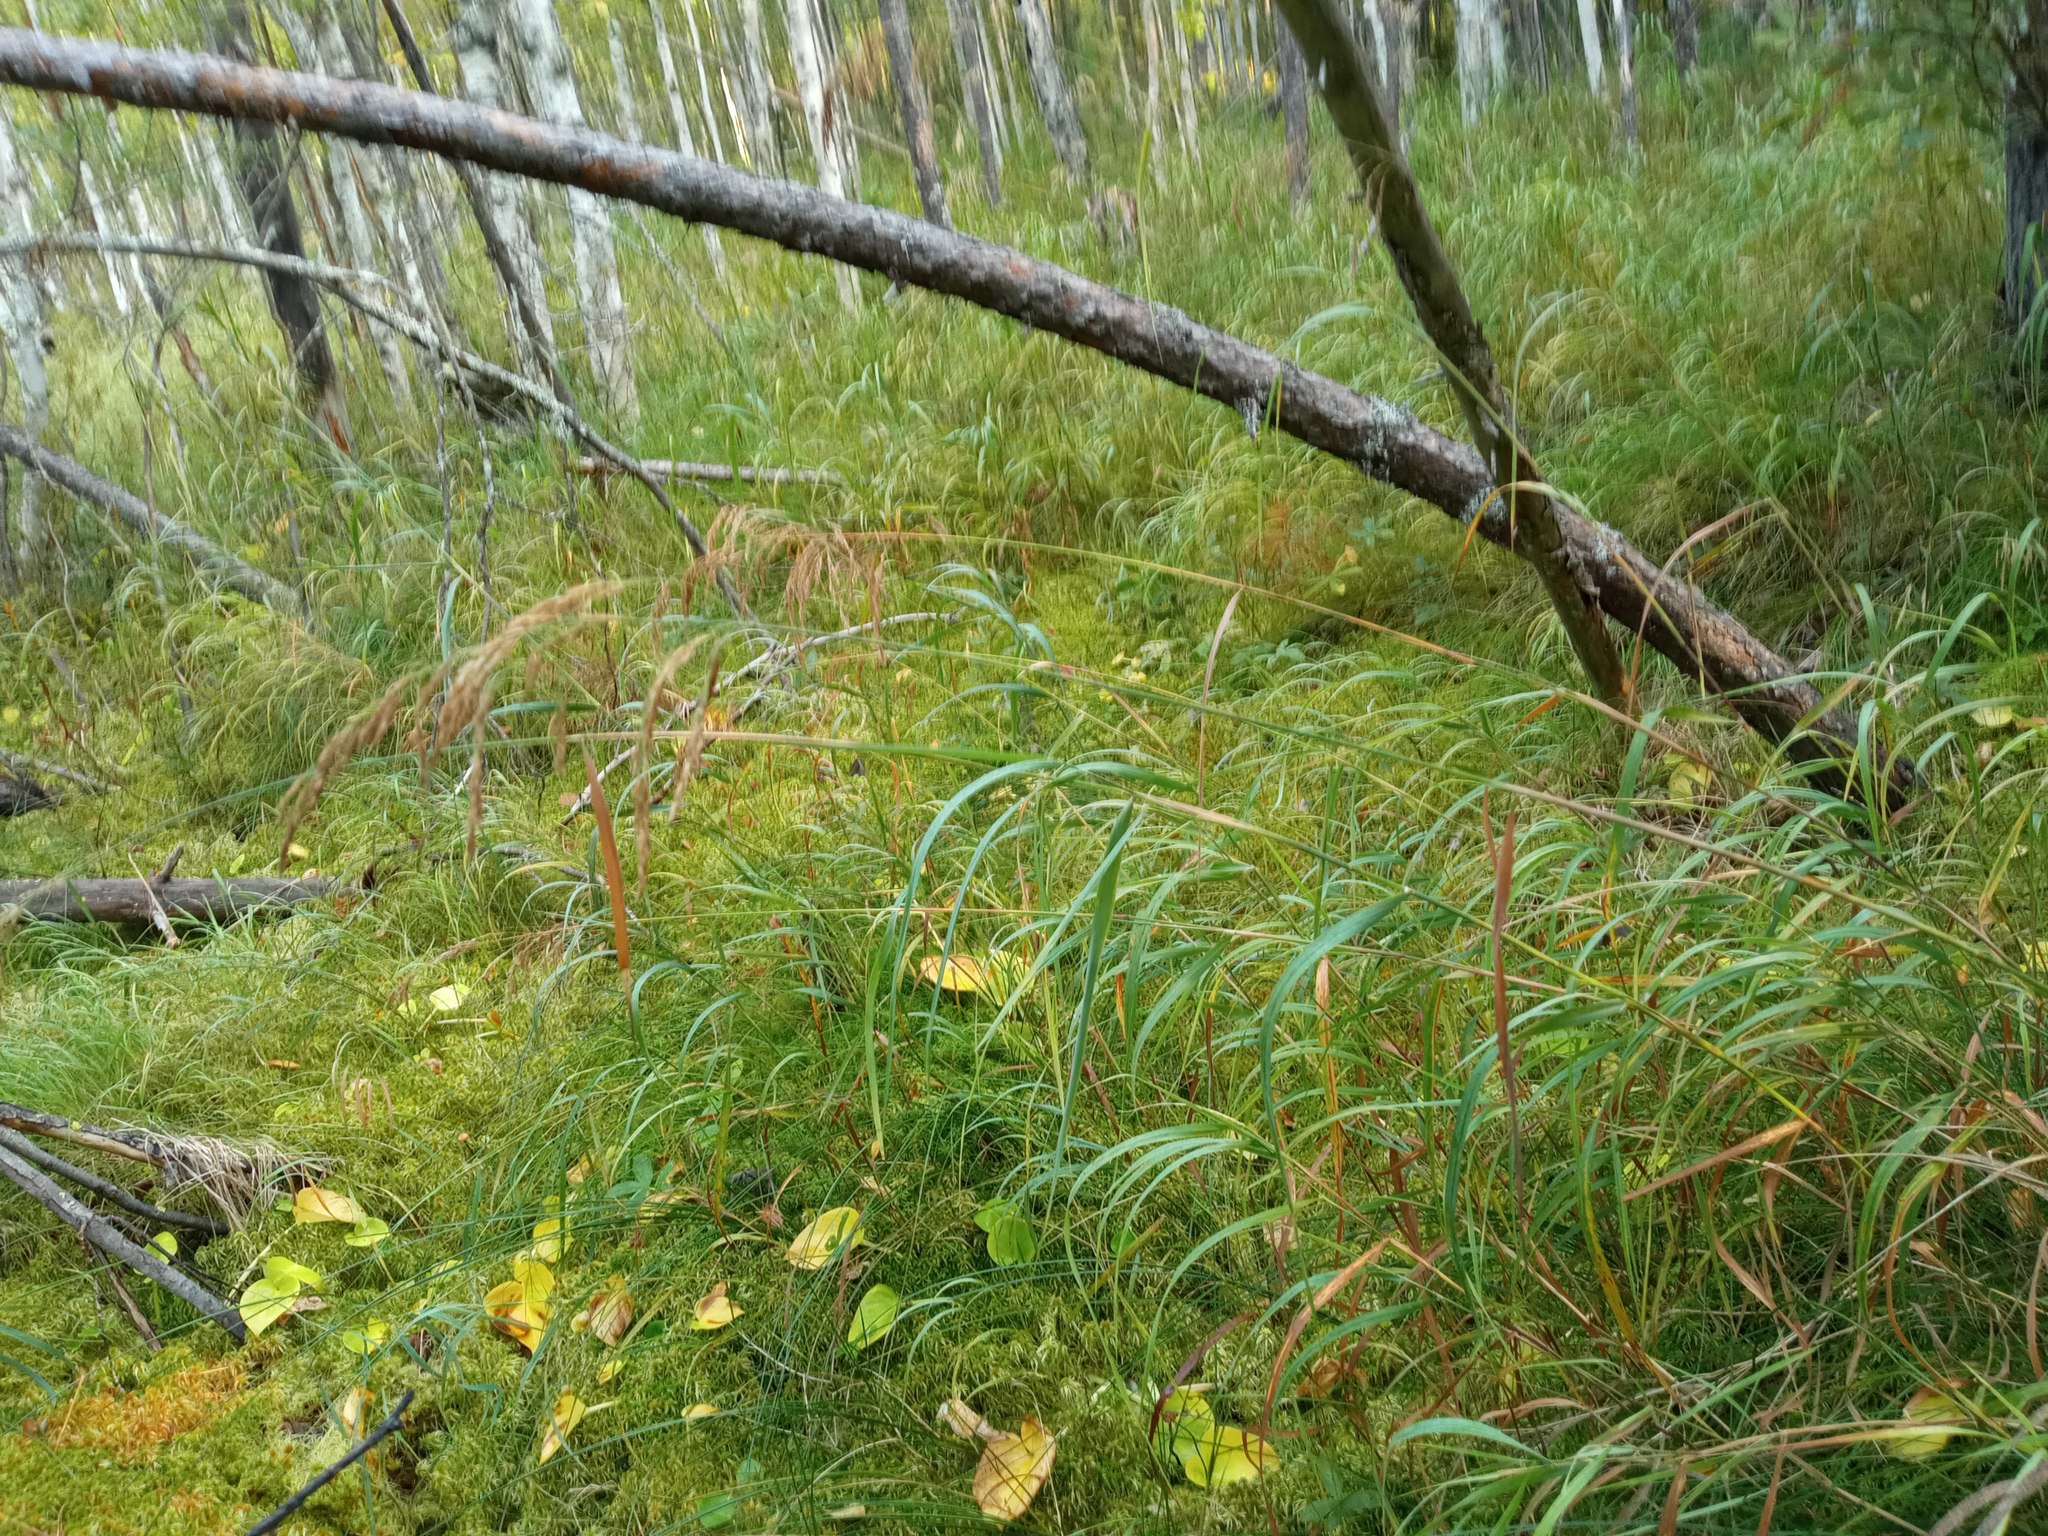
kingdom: Plantae
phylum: Tracheophyta
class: Liliopsida
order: Poales
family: Poaceae
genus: Calamagrostis
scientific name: Calamagrostis purpurea
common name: Scandinavian small-reed
